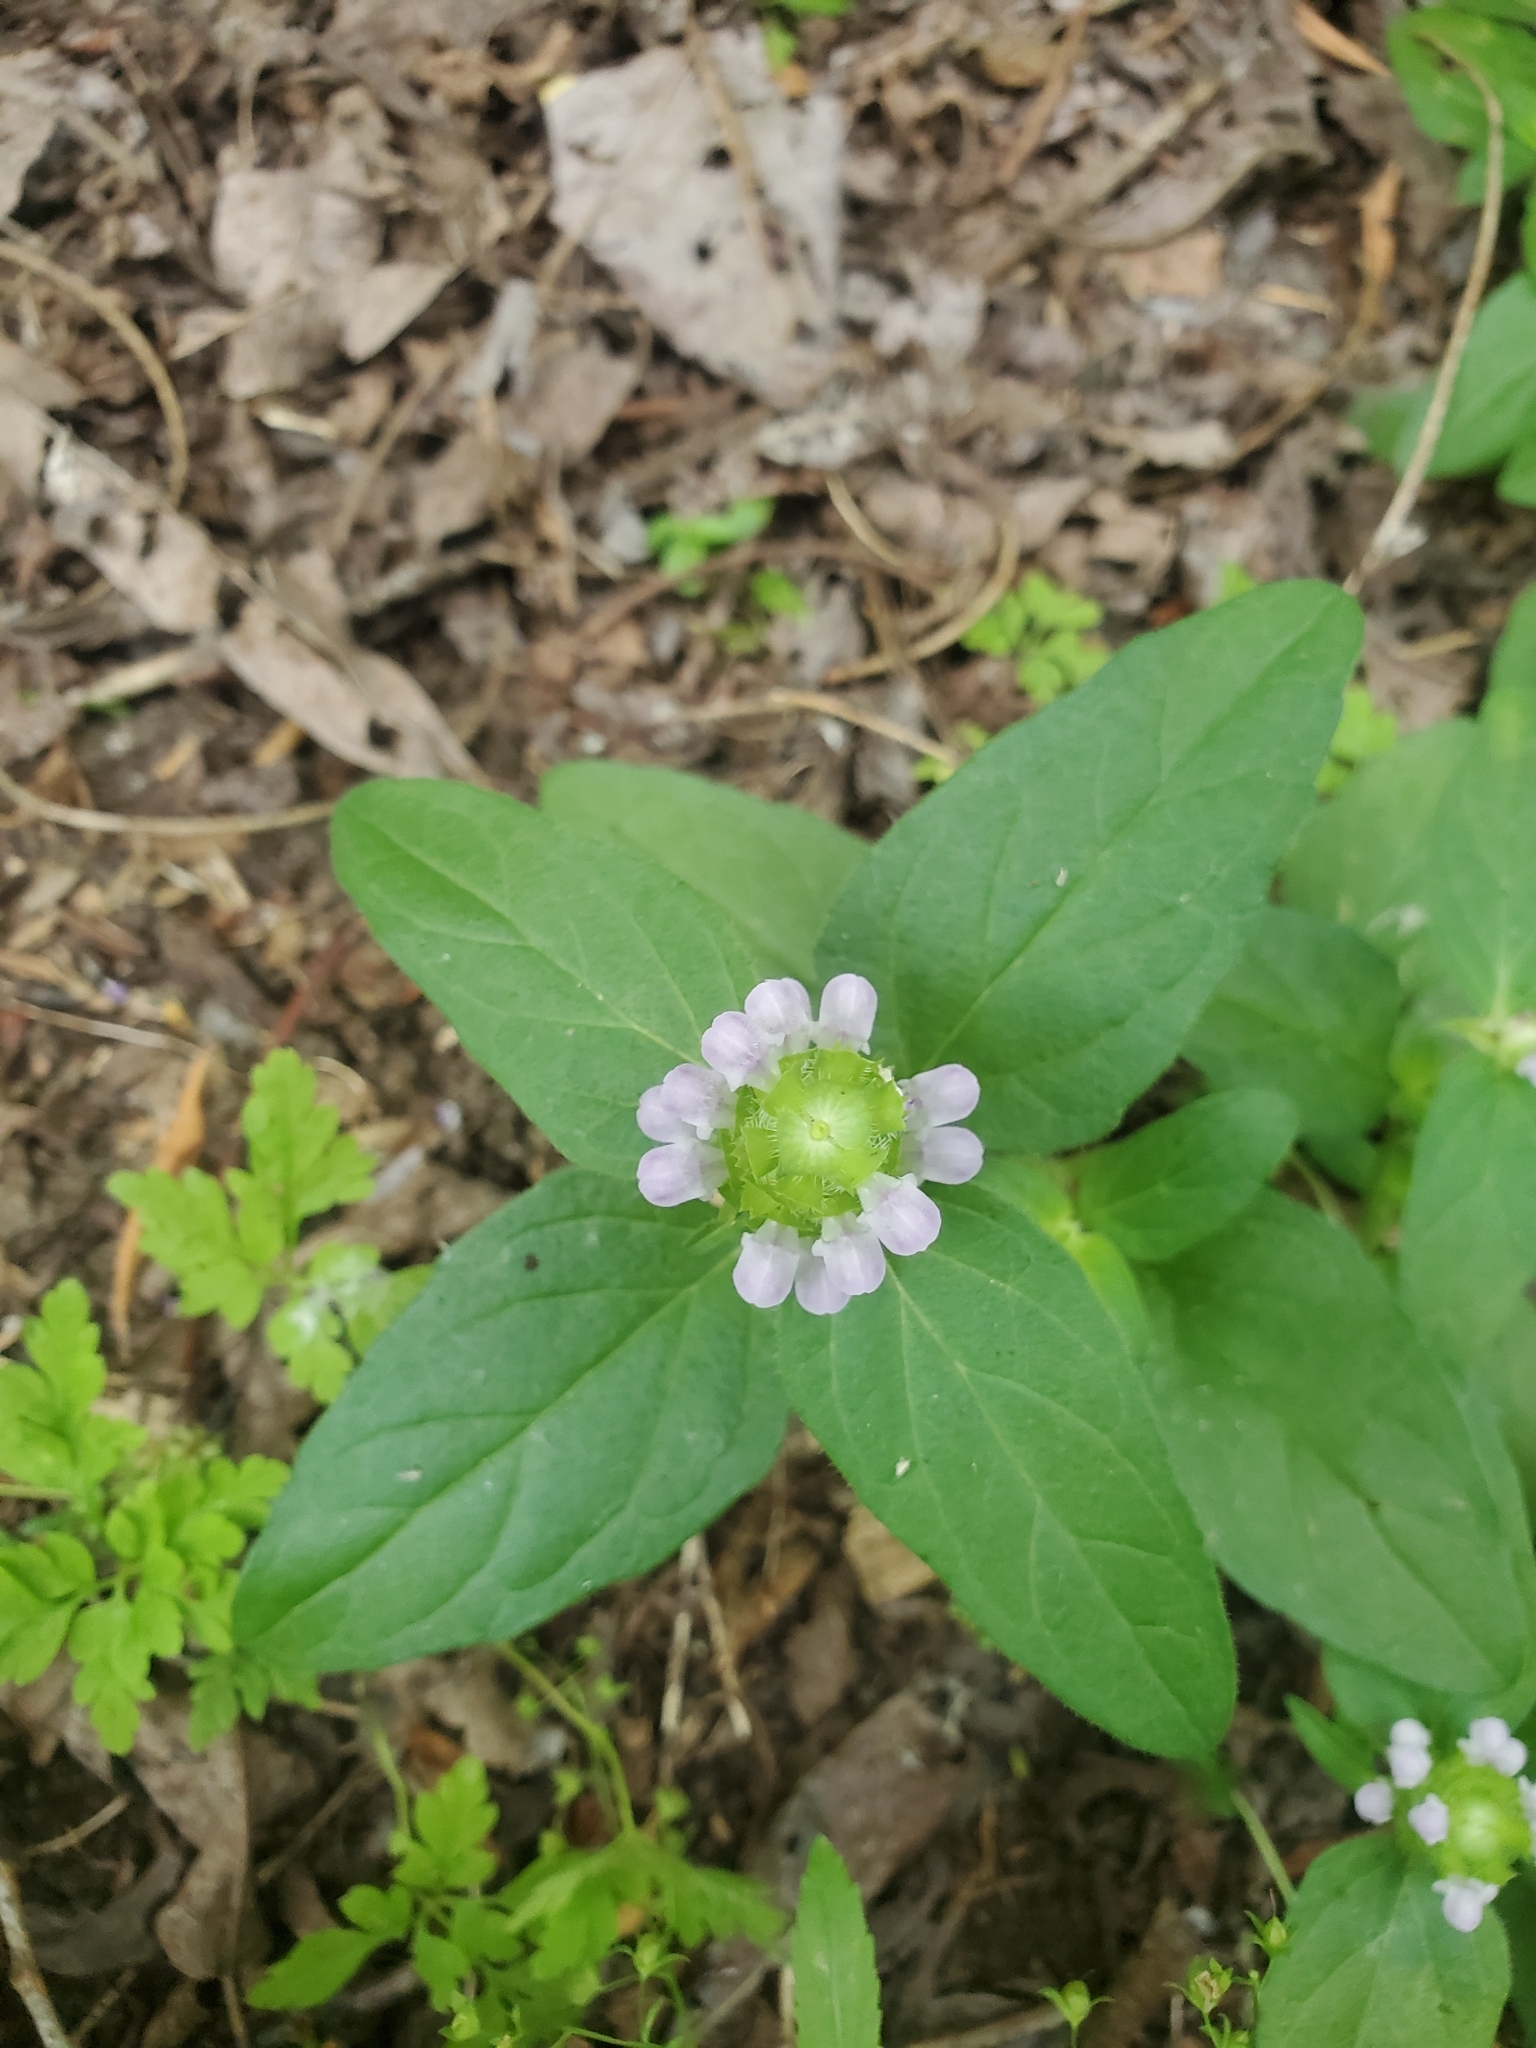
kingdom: Plantae
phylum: Tracheophyta
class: Magnoliopsida
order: Lamiales
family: Lamiaceae
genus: Prunella
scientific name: Prunella vulgaris
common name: Heal-all
